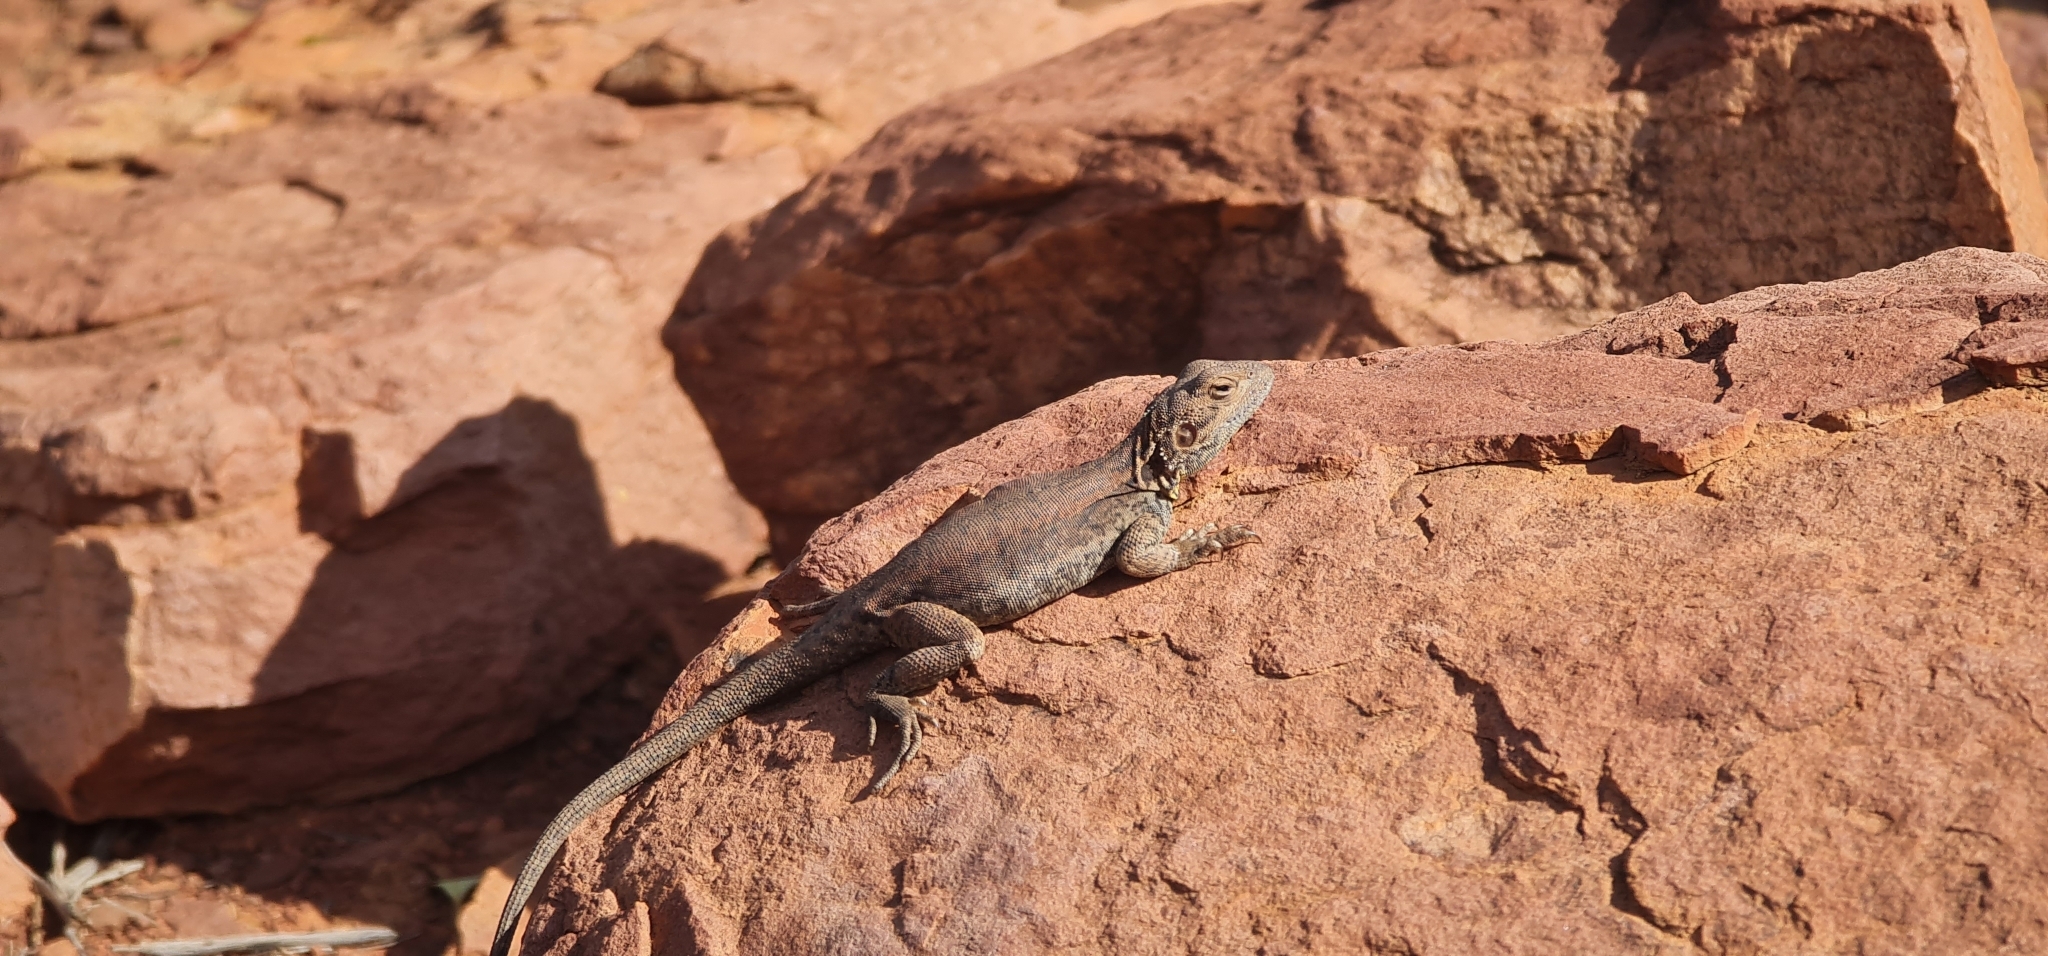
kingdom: Animalia
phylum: Chordata
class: Squamata
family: Agamidae
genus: Ctenophorus
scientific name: Ctenophorus modestus
